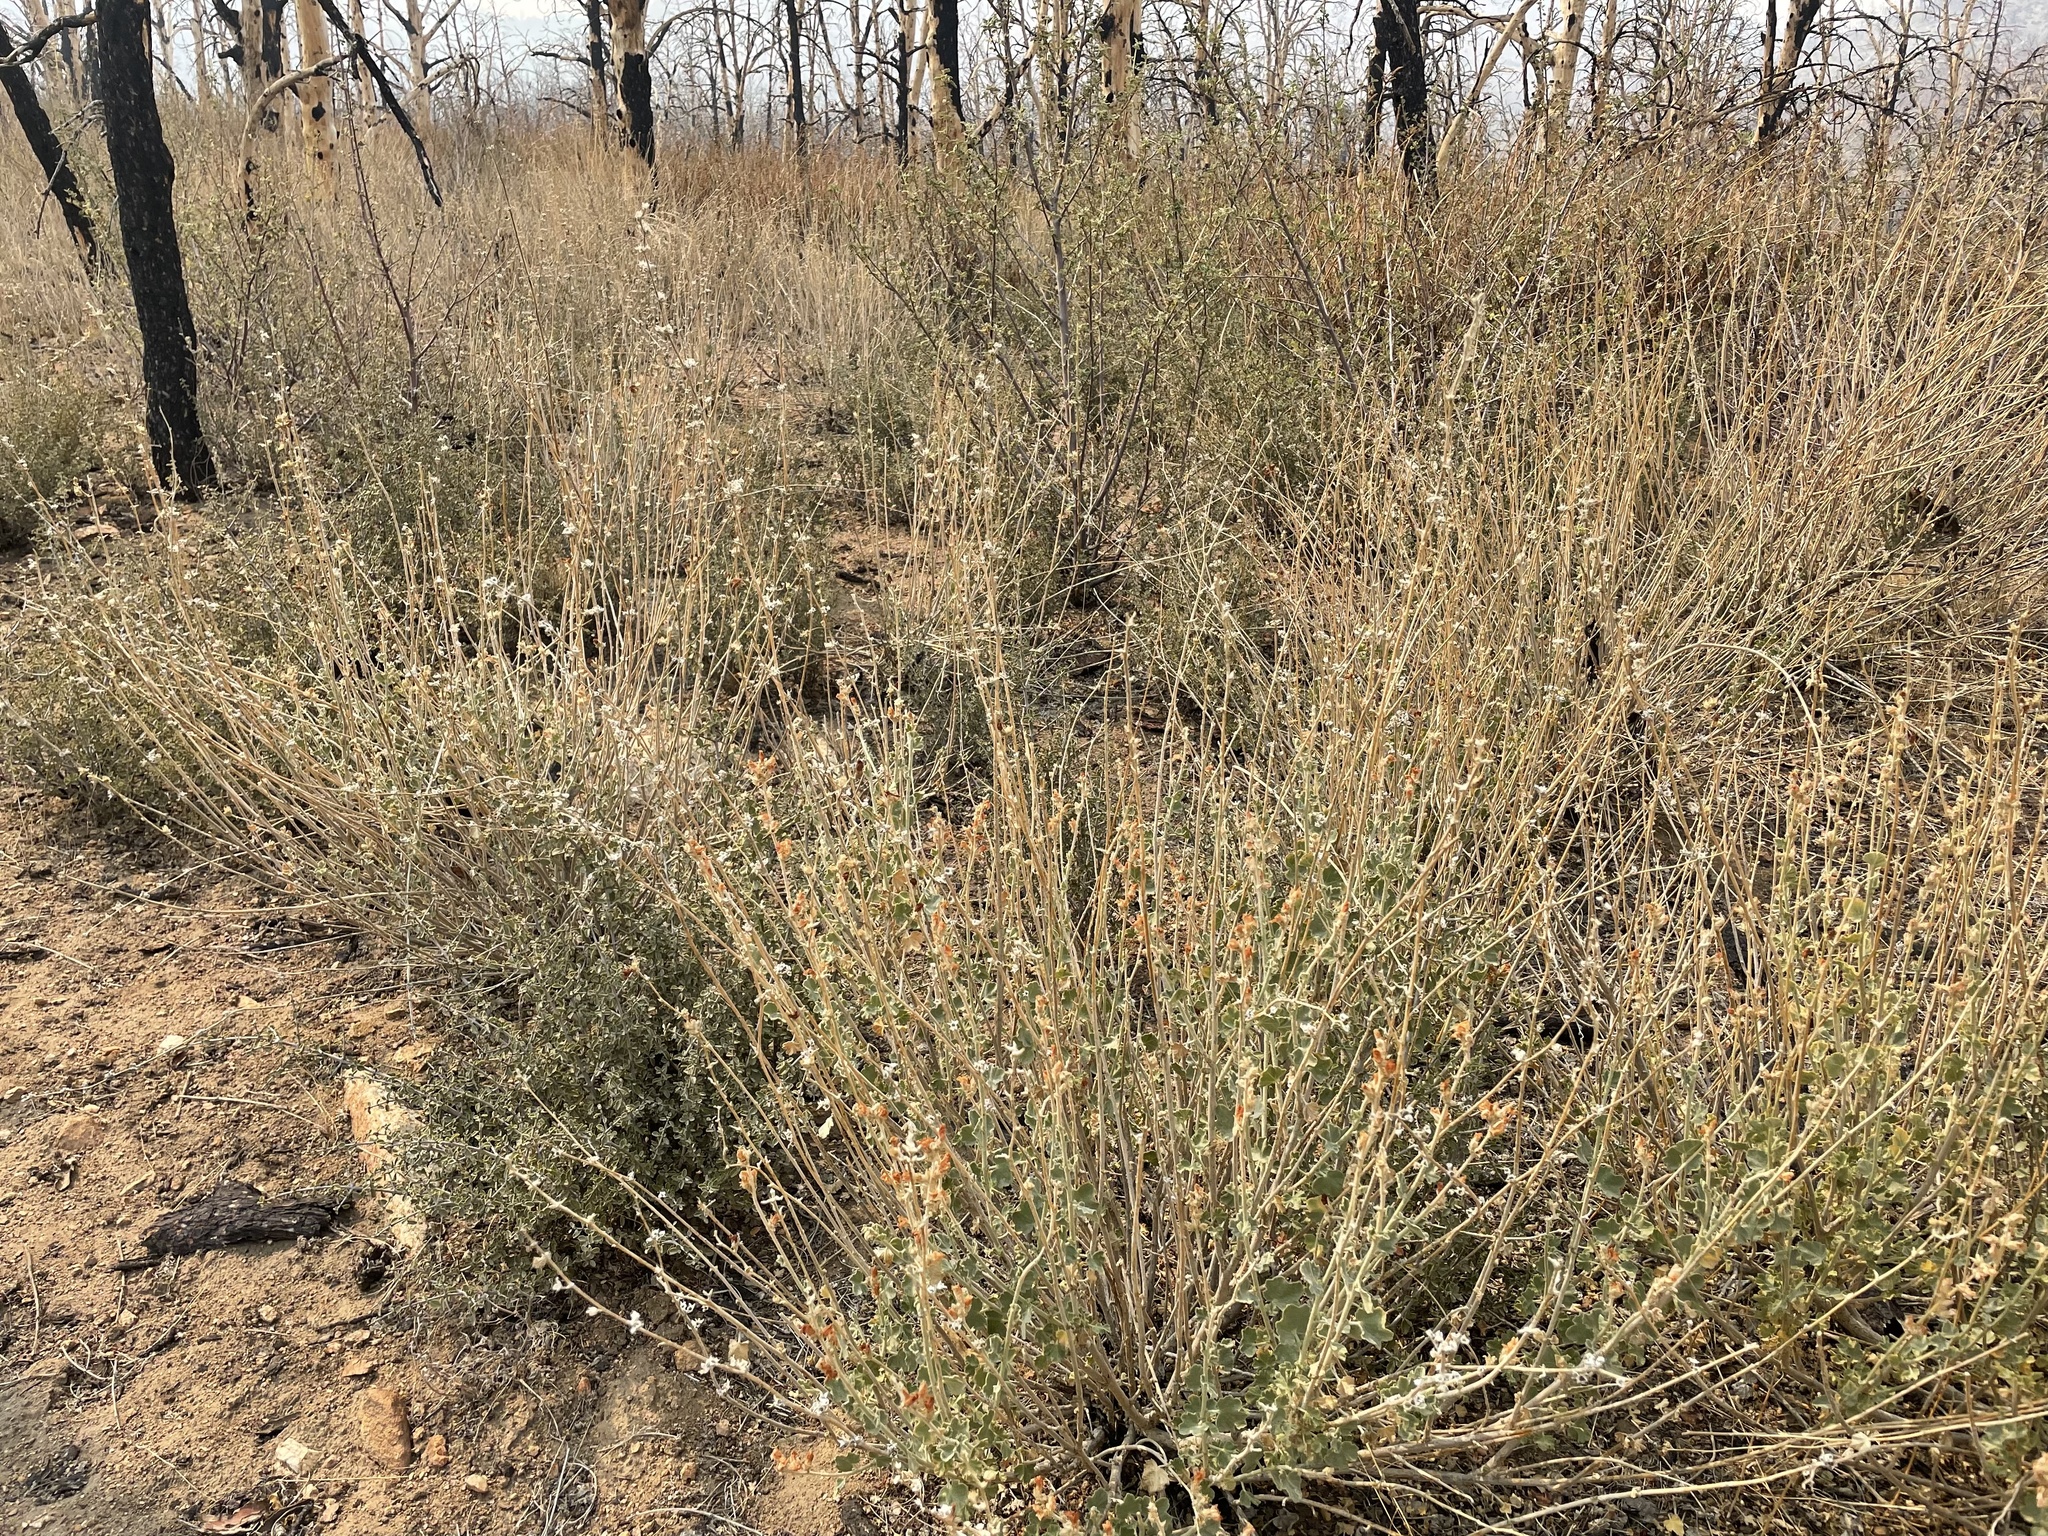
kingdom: Plantae
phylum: Tracheophyta
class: Magnoliopsida
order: Malvales
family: Malvaceae
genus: Malacothamnus
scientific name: Malacothamnus fremontii
